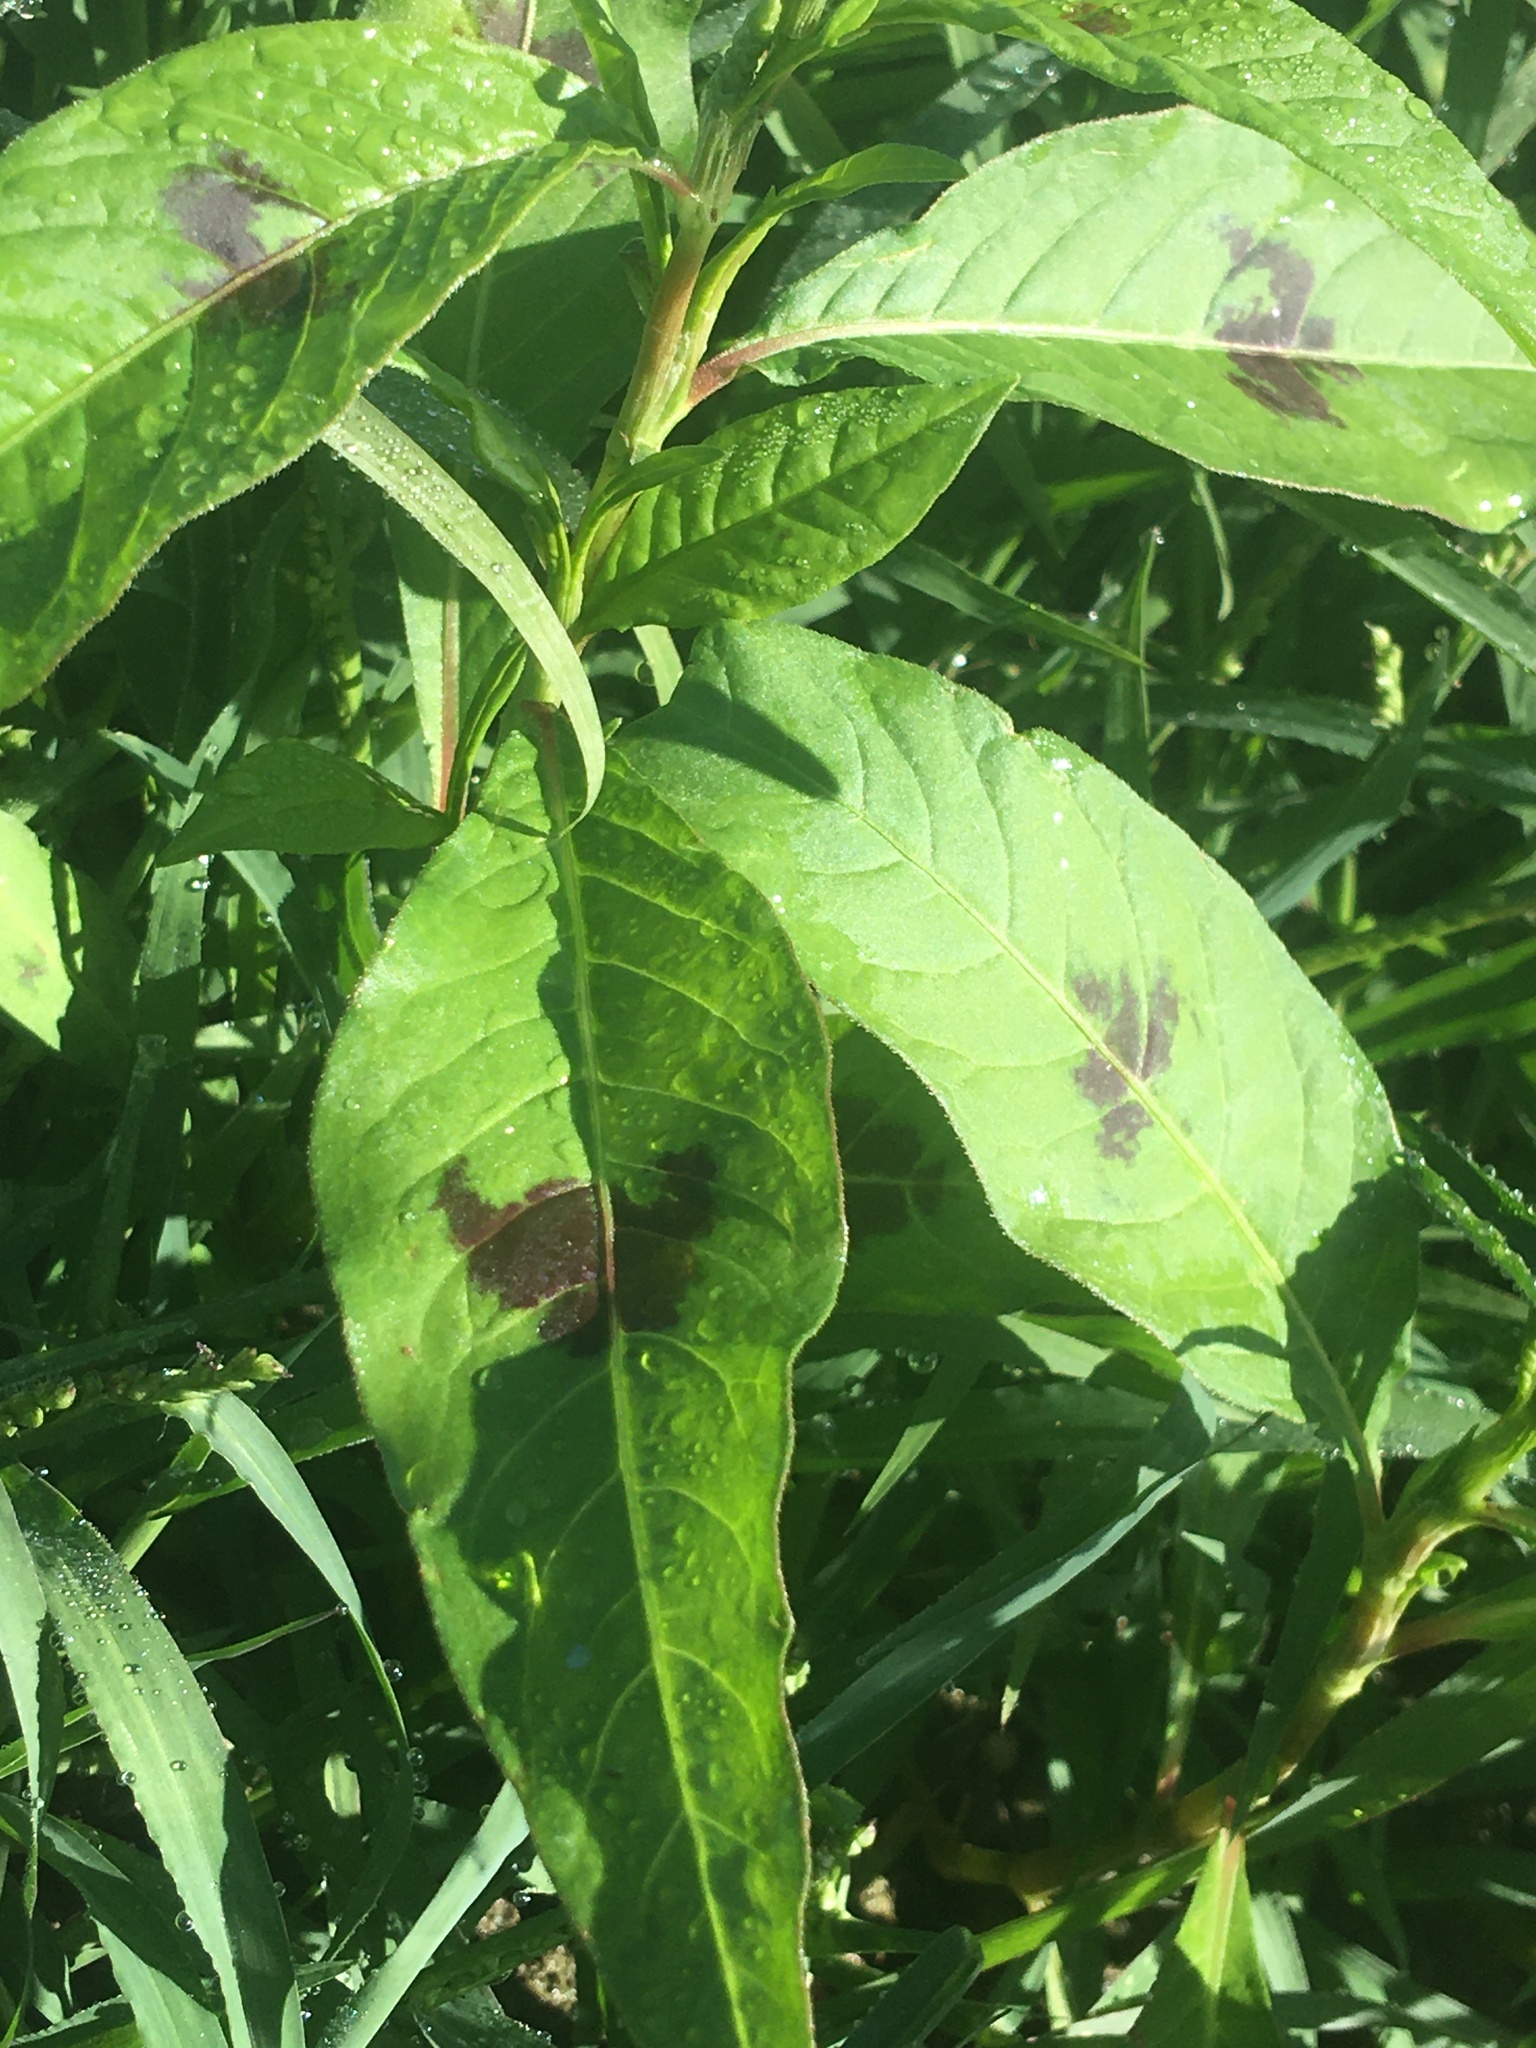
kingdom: Plantae
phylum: Tracheophyta
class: Magnoliopsida
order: Caryophyllales
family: Polygonaceae
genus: Persicaria
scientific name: Persicaria maculosa
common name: Redshank
